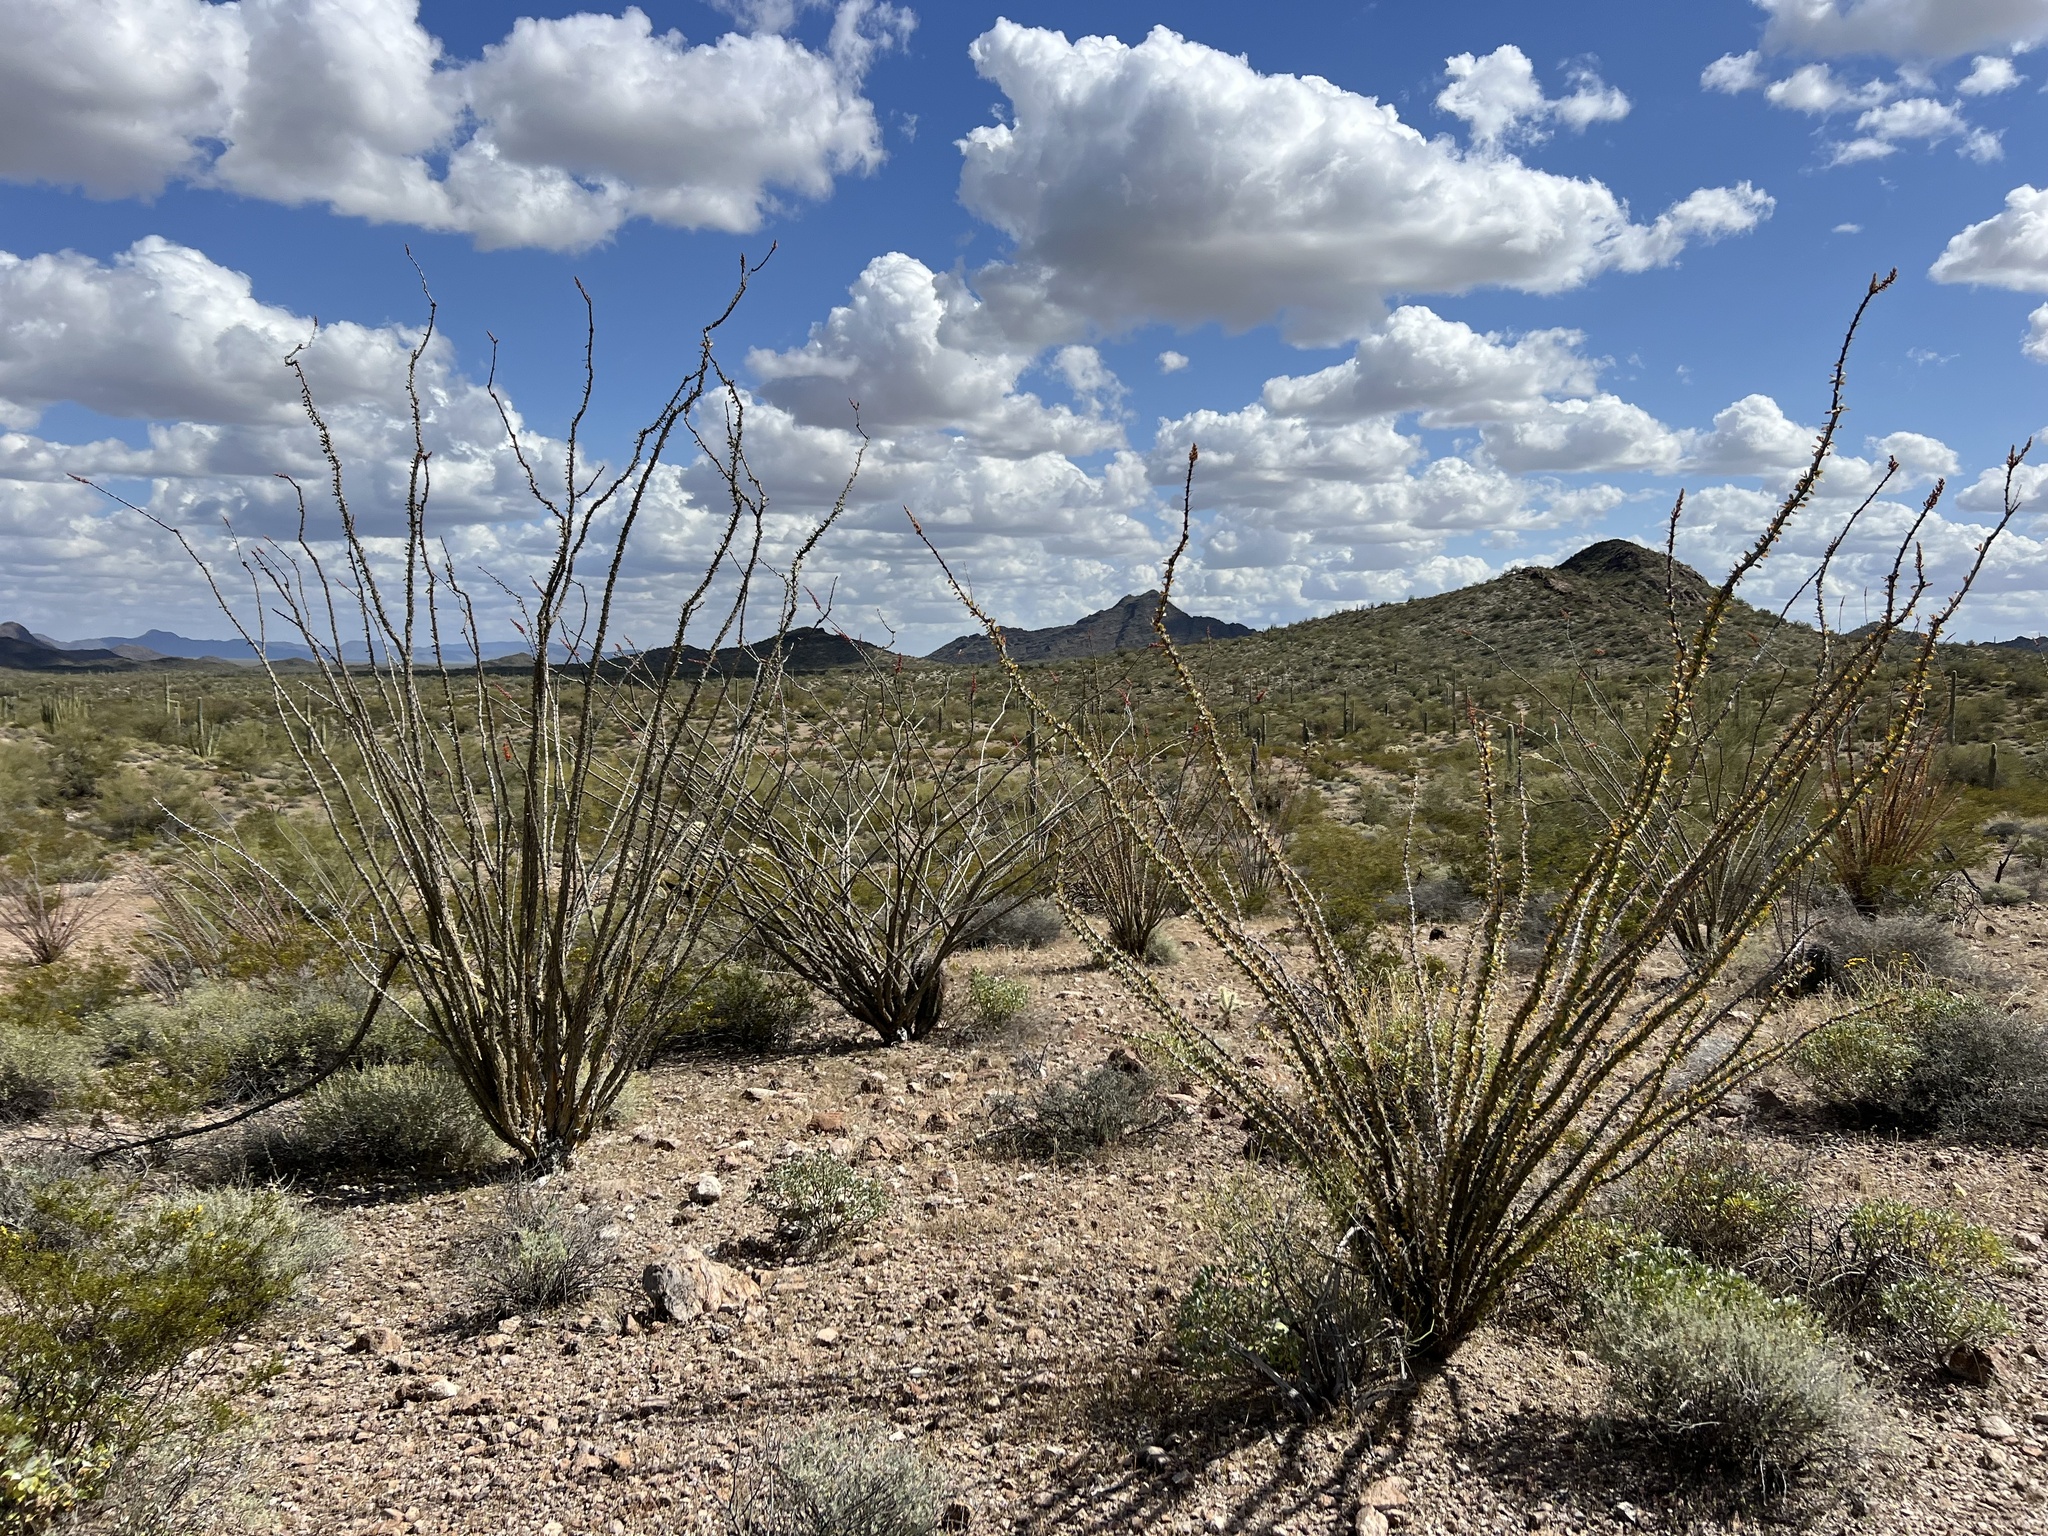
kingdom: Plantae
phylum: Tracheophyta
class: Magnoliopsida
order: Ericales
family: Fouquieriaceae
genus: Fouquieria
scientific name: Fouquieria splendens
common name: Vine-cactus
